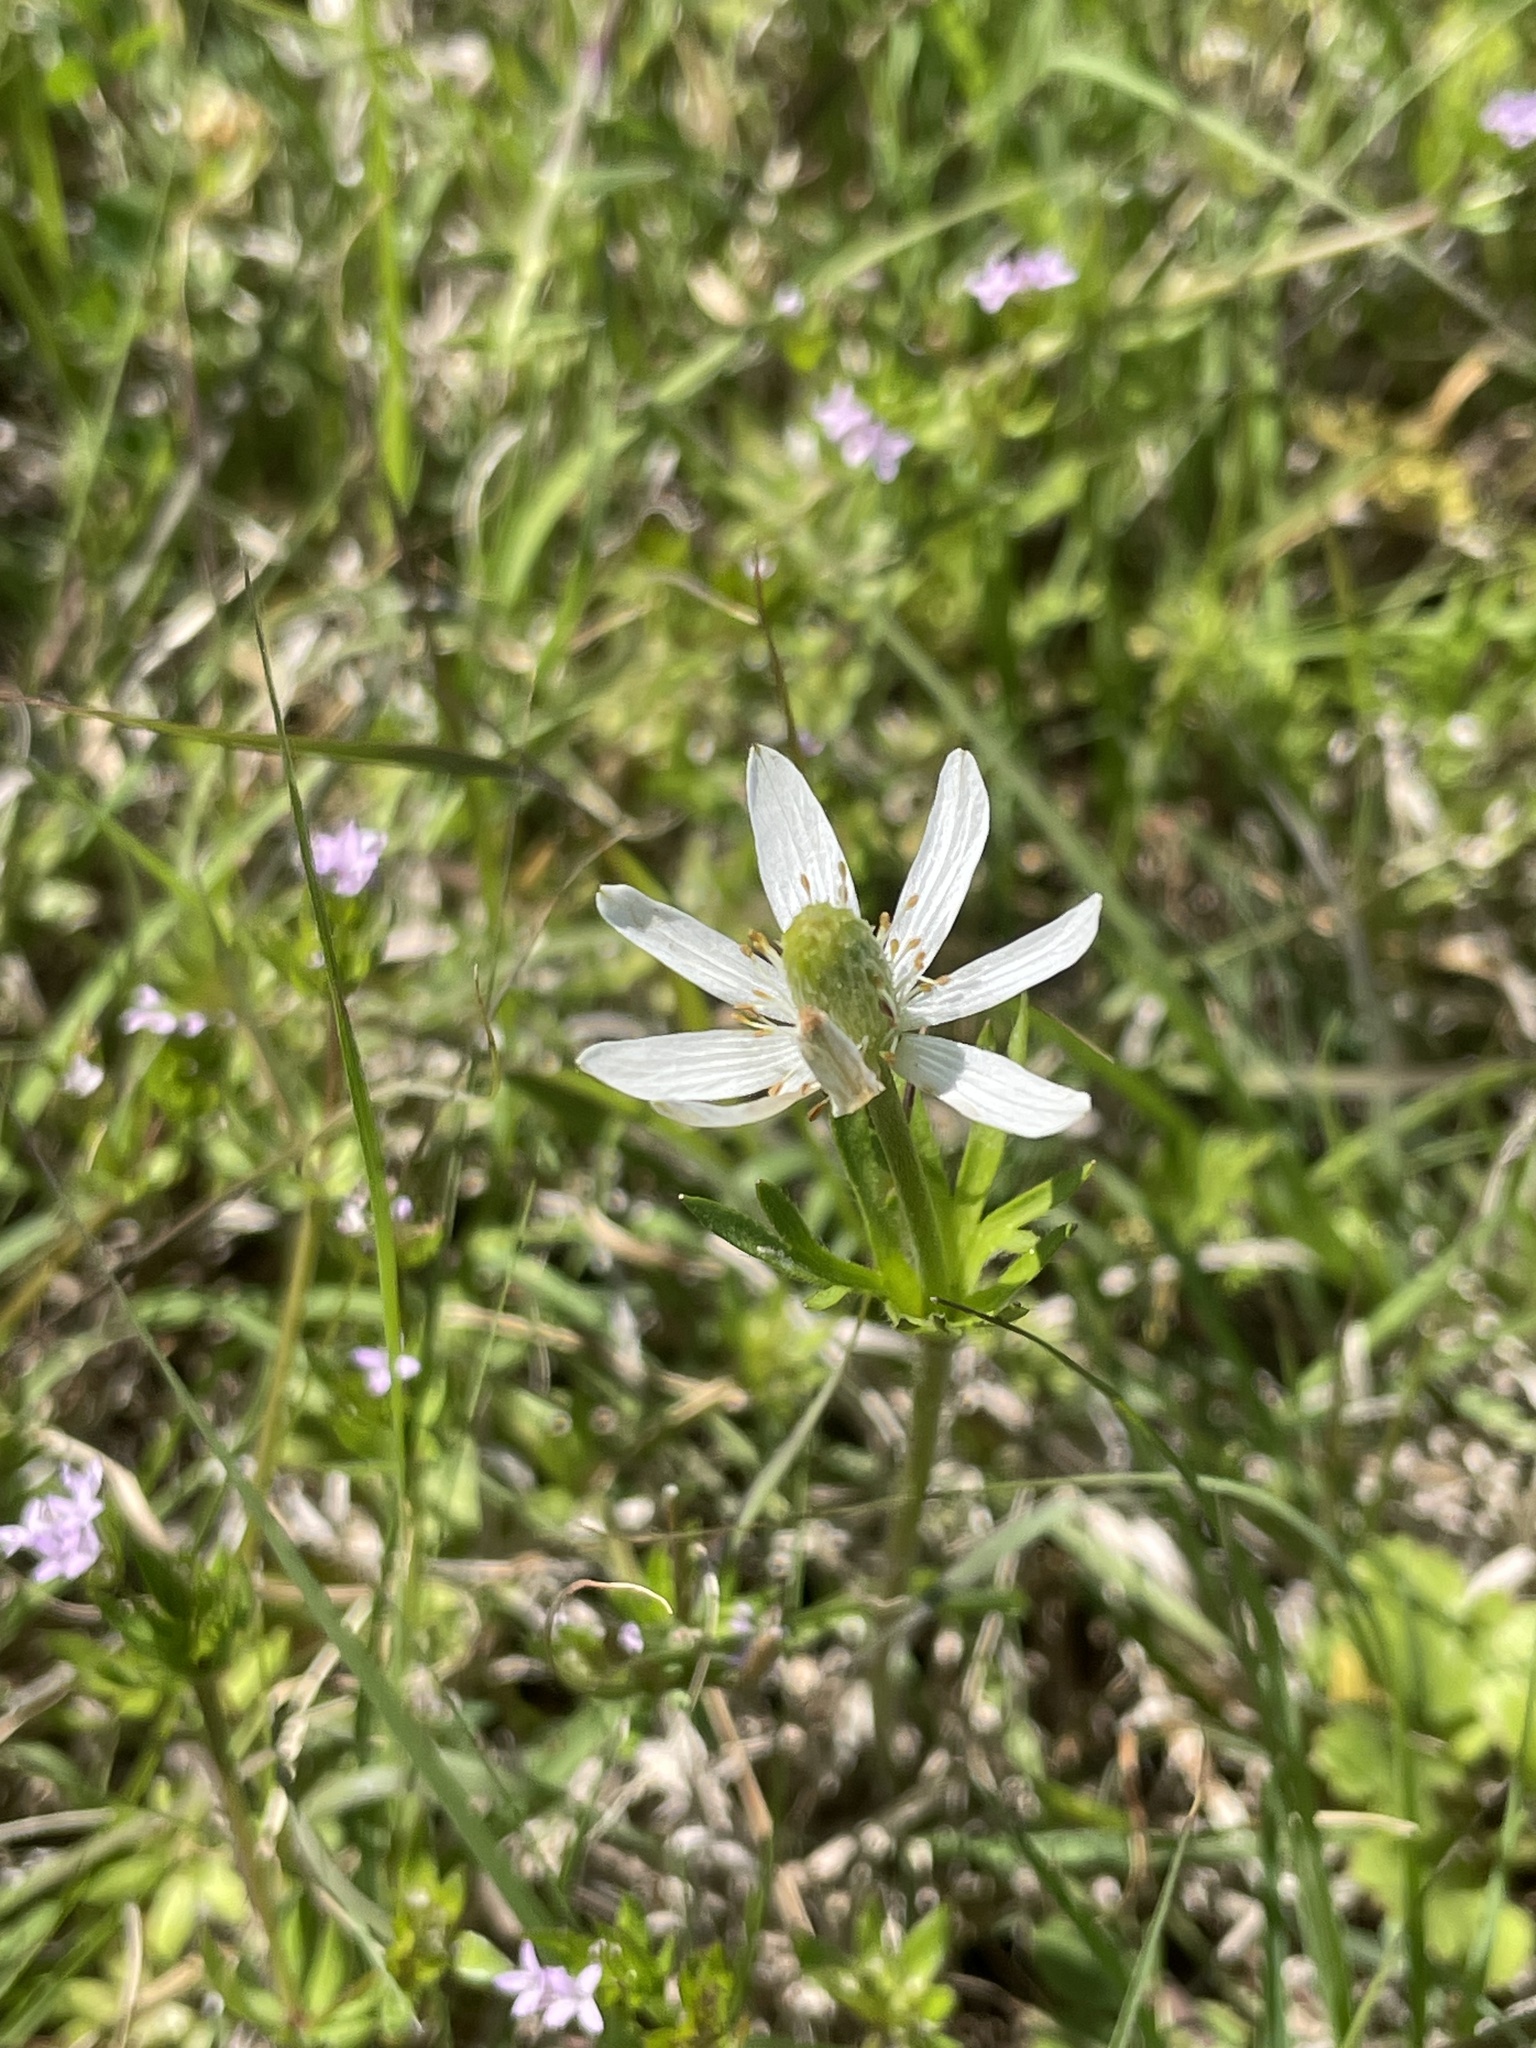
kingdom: Plantae
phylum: Tracheophyta
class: Magnoliopsida
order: Ranunculales
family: Ranunculaceae
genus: Anemone
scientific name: Anemone berlandieri
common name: Ten-petal anemone
